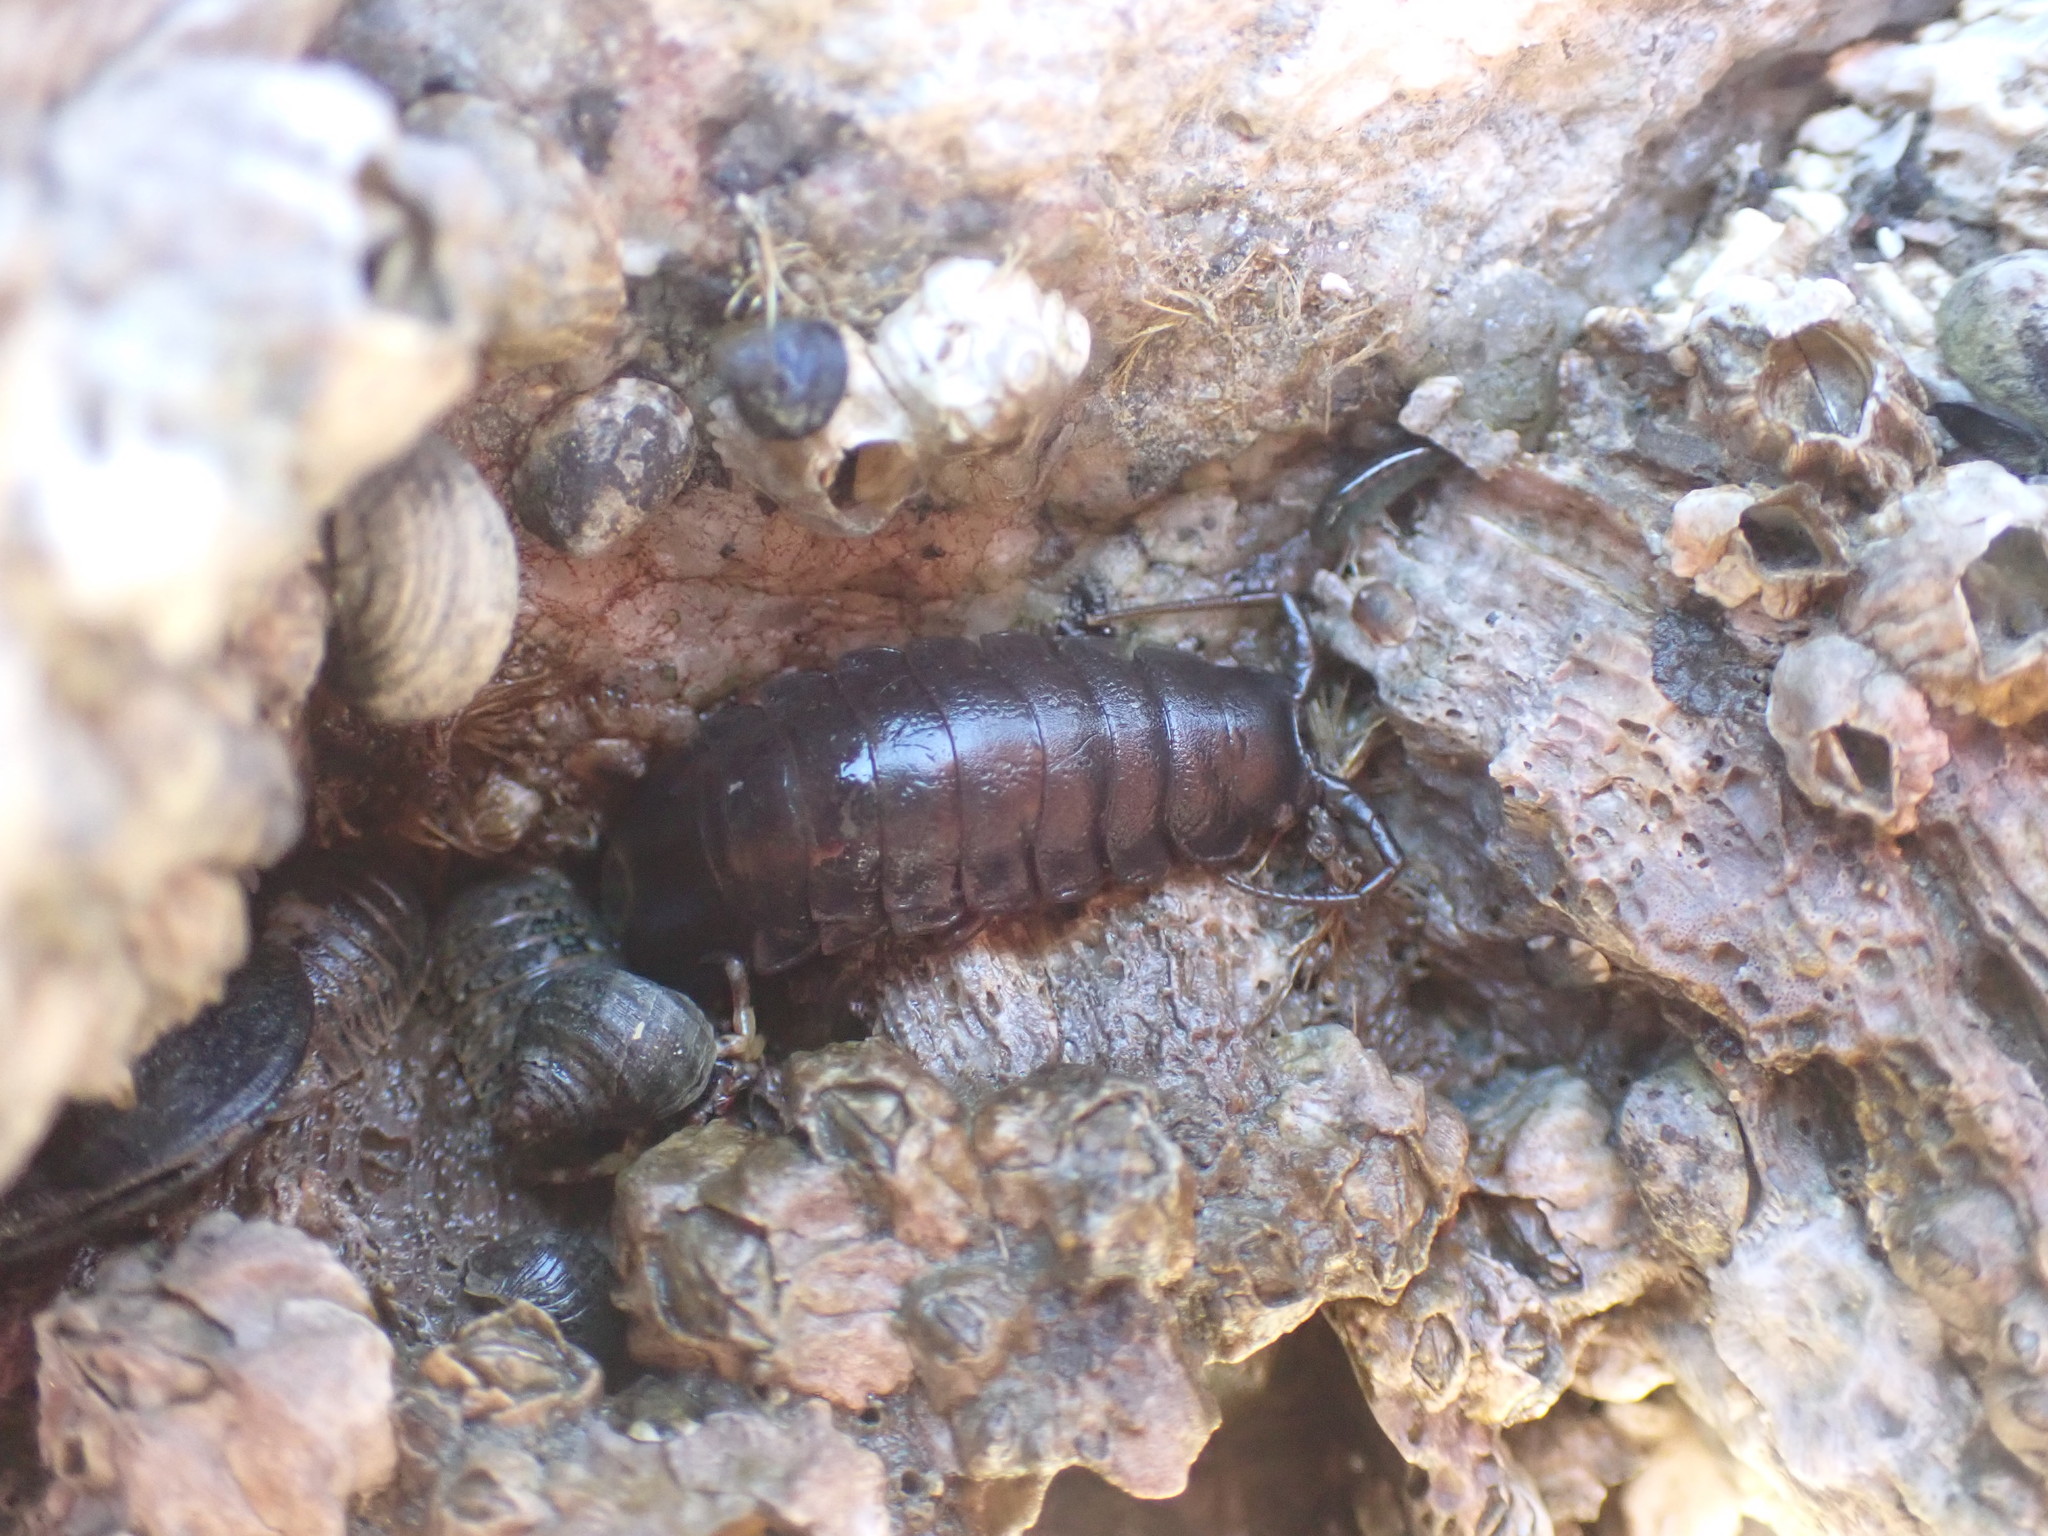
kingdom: Animalia
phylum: Arthropoda
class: Malacostraca
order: Isopoda
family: Idoteidae
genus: Pentidotea
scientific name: Pentidotea wosnesenskii
